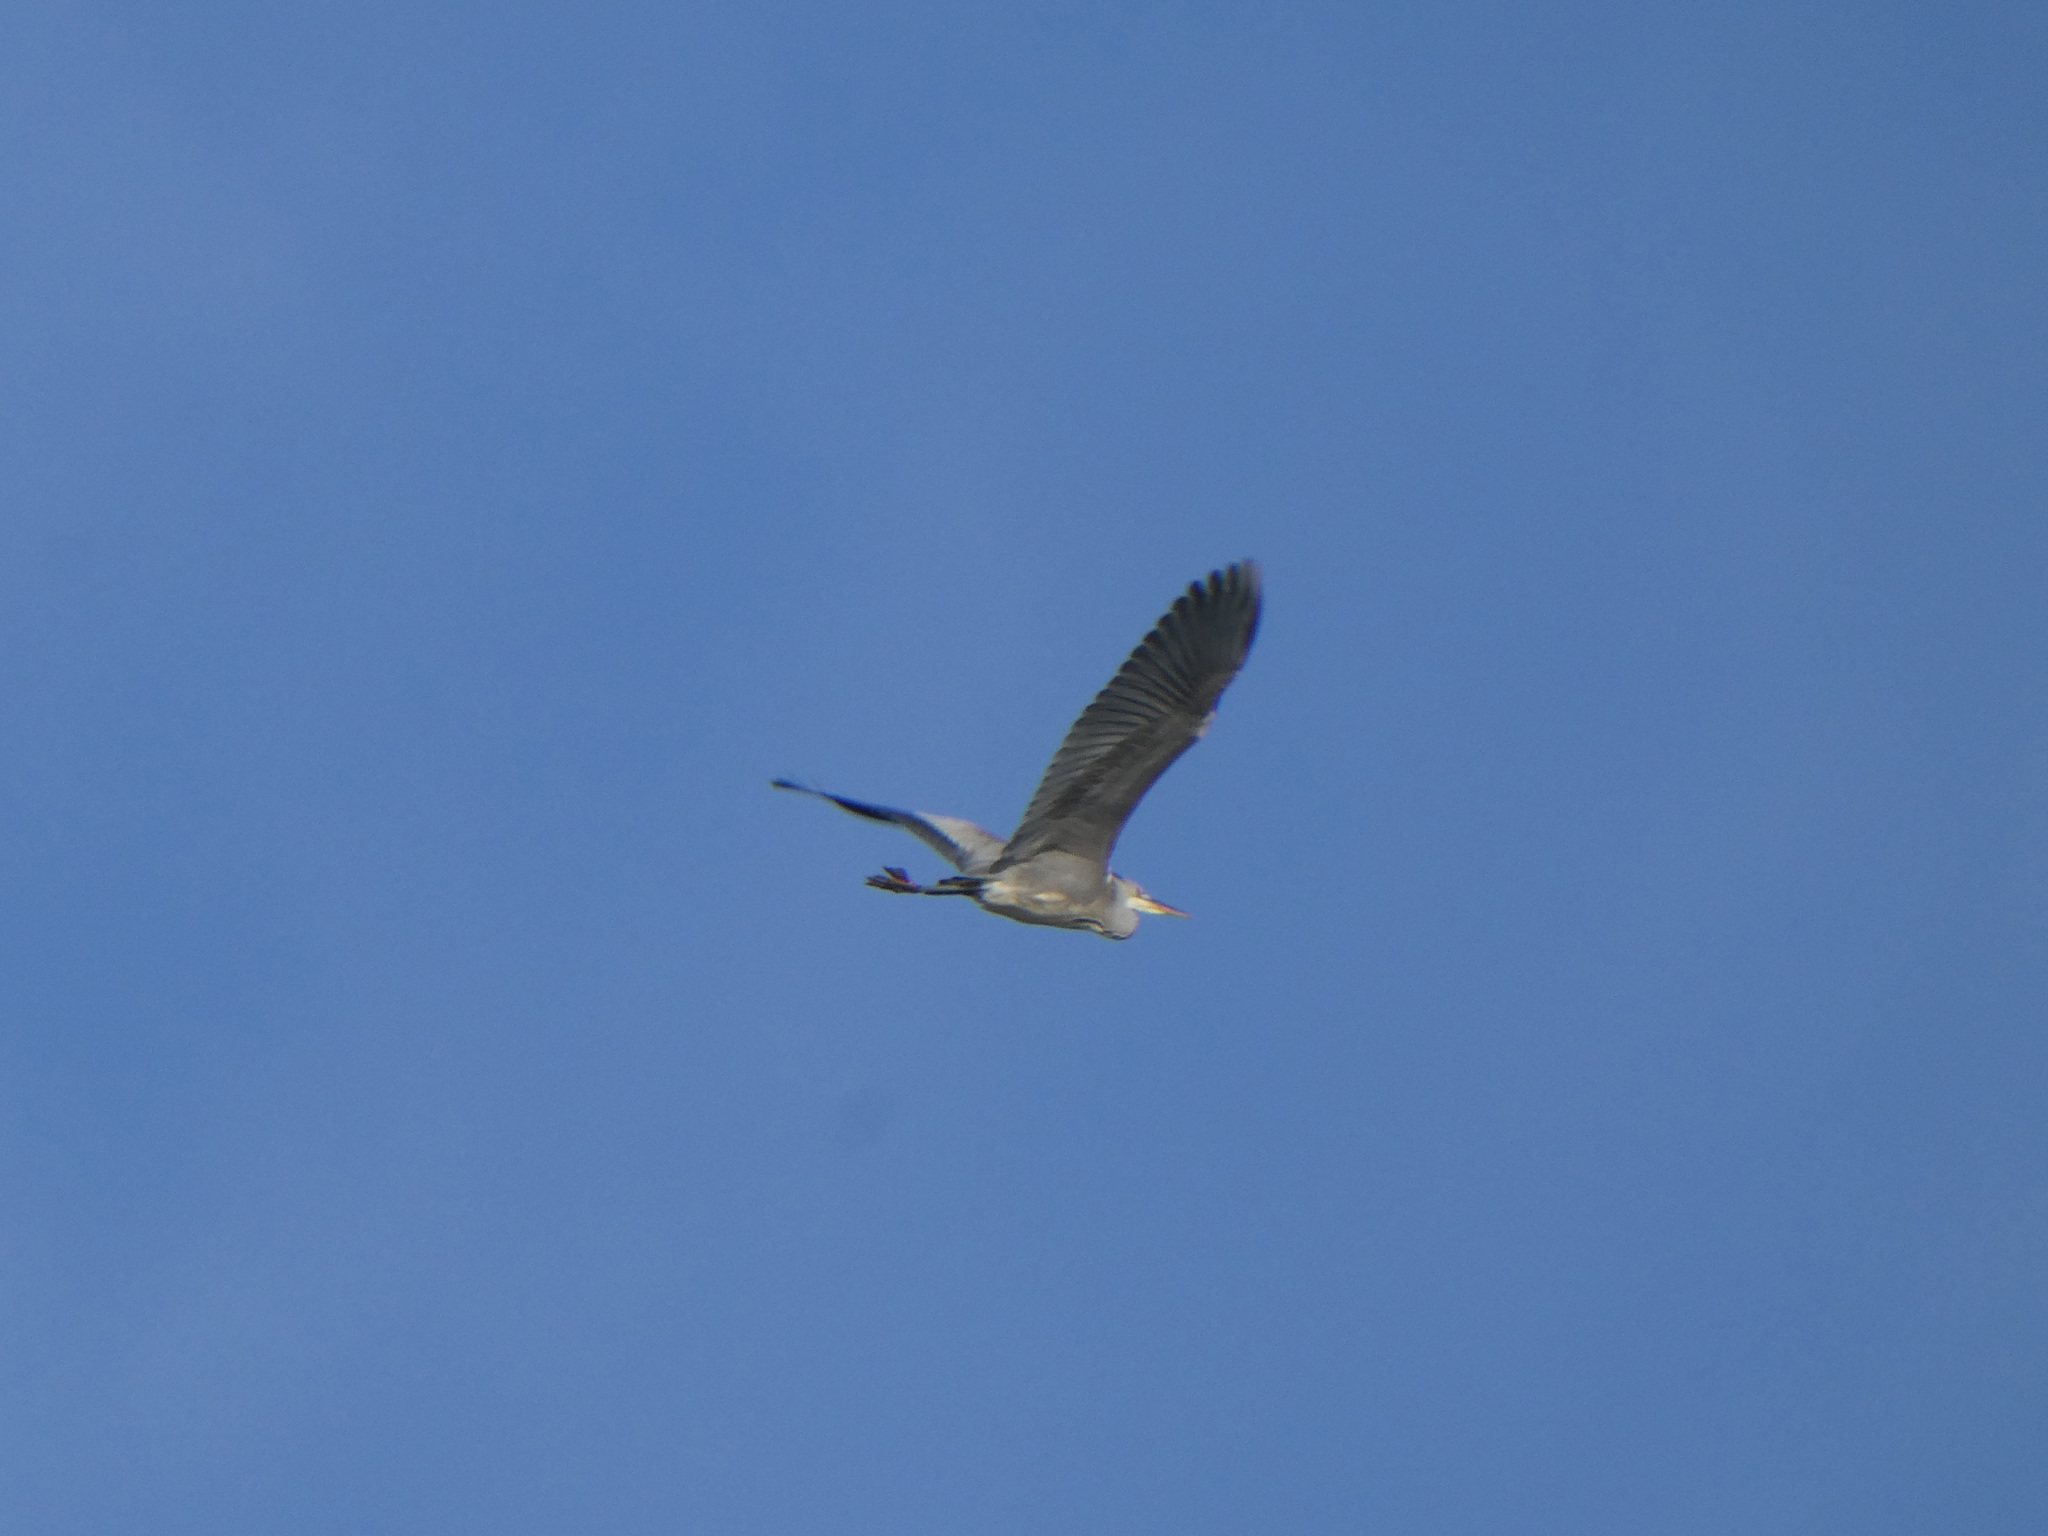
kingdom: Animalia
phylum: Chordata
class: Aves
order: Pelecaniformes
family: Ardeidae
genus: Ardea
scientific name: Ardea cinerea
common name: Grey heron
